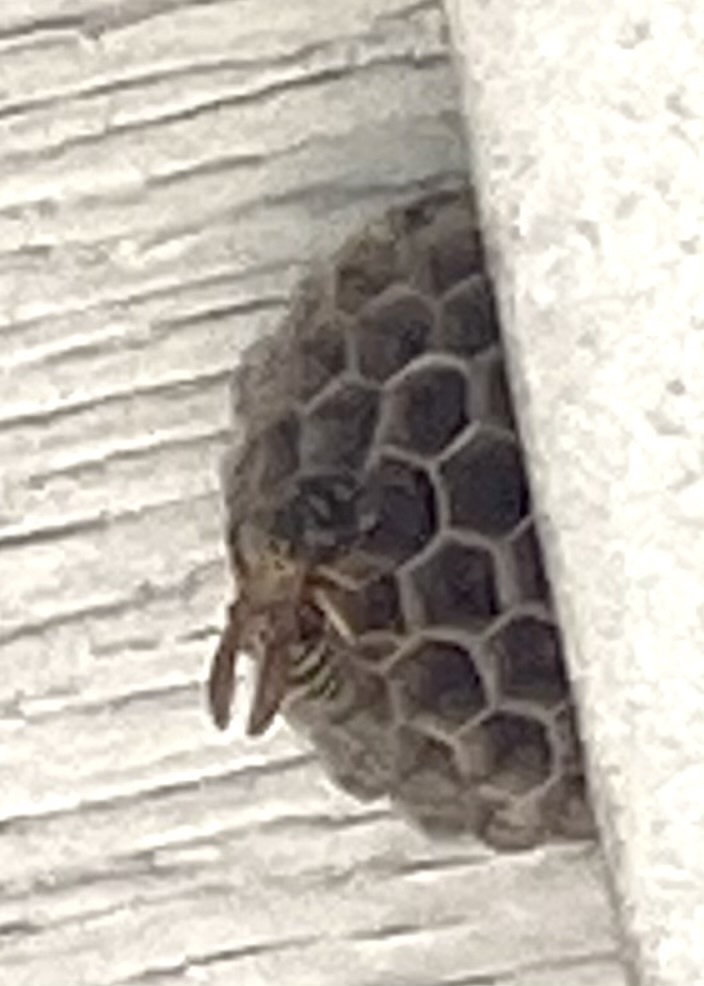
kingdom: Animalia
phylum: Arthropoda
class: Insecta
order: Hymenoptera
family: Eumenidae
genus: Polistes
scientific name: Polistes dominula
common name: Paper wasp
